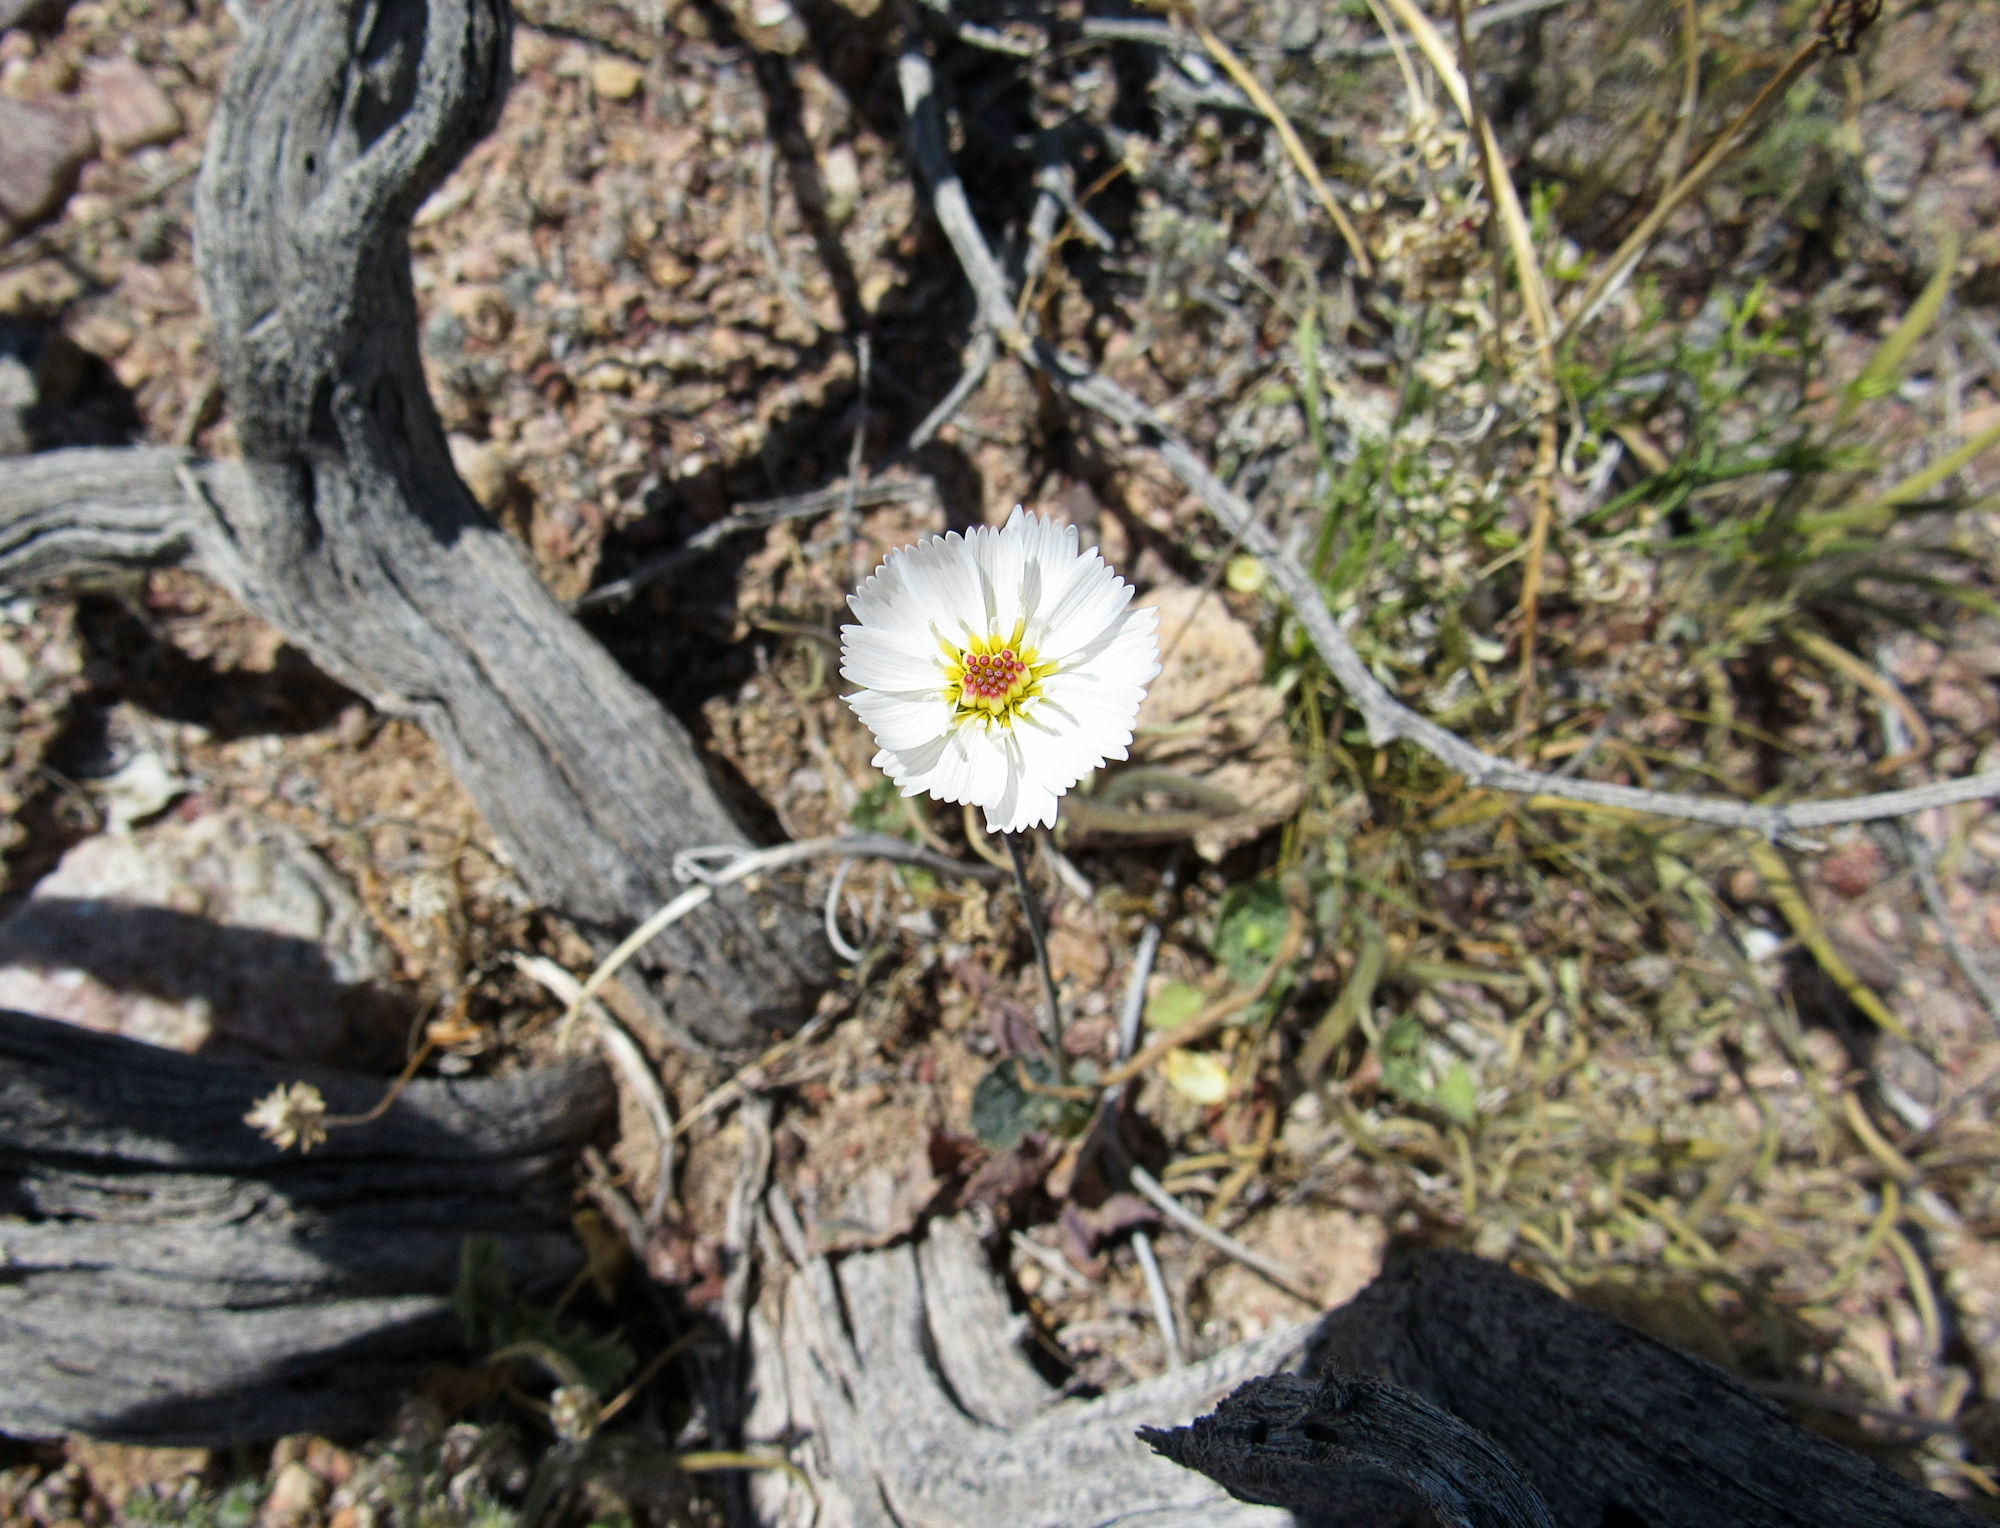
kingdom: Plantae
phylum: Tracheophyta
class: Magnoliopsida
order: Asterales
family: Asteraceae
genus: Atrichoseris
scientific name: Atrichoseris platyphylla
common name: Tobaccoweed
